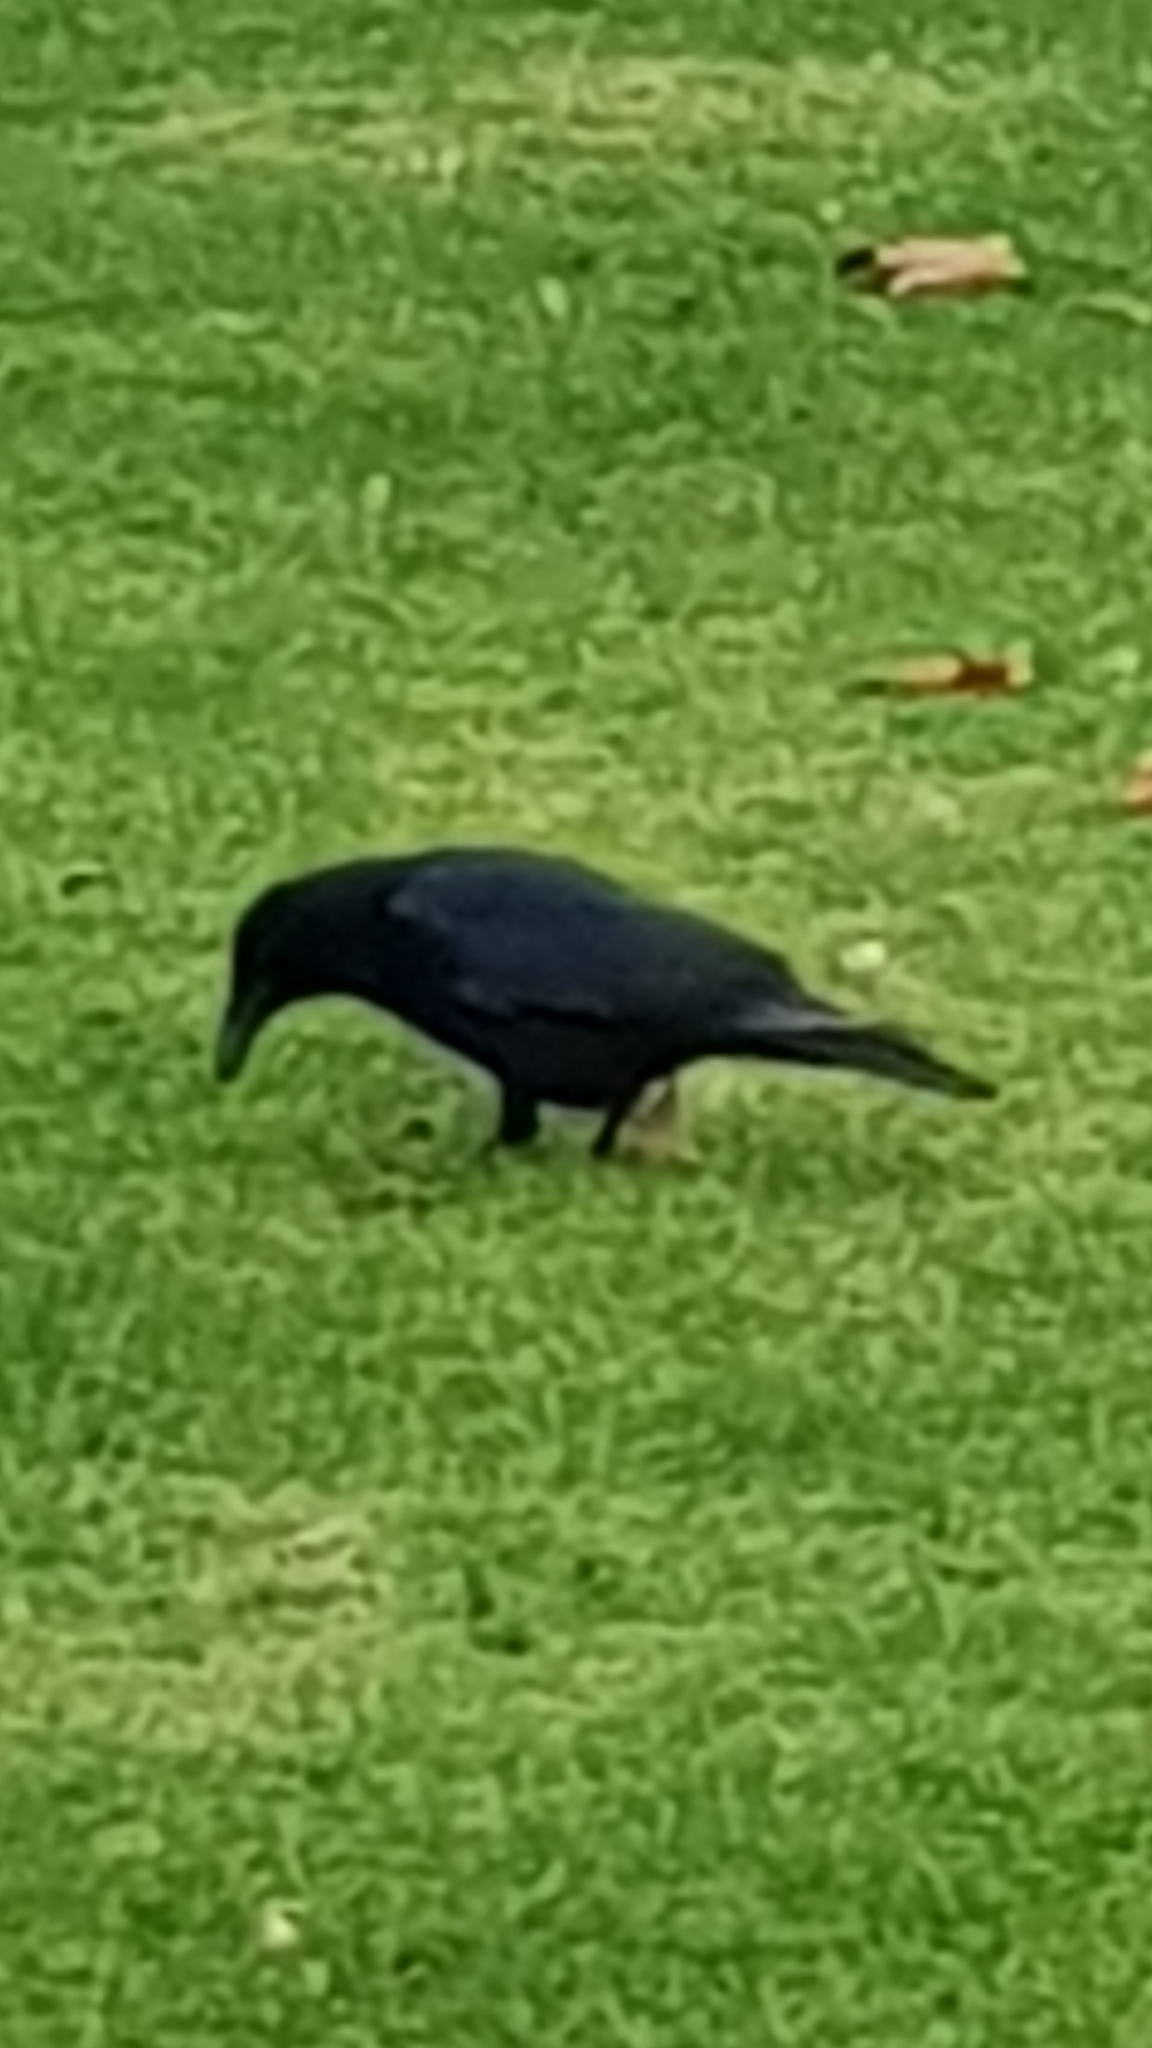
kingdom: Animalia
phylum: Chordata
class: Aves
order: Passeriformes
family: Corvidae
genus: Corvus
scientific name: Corvus corone
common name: Carrion crow
